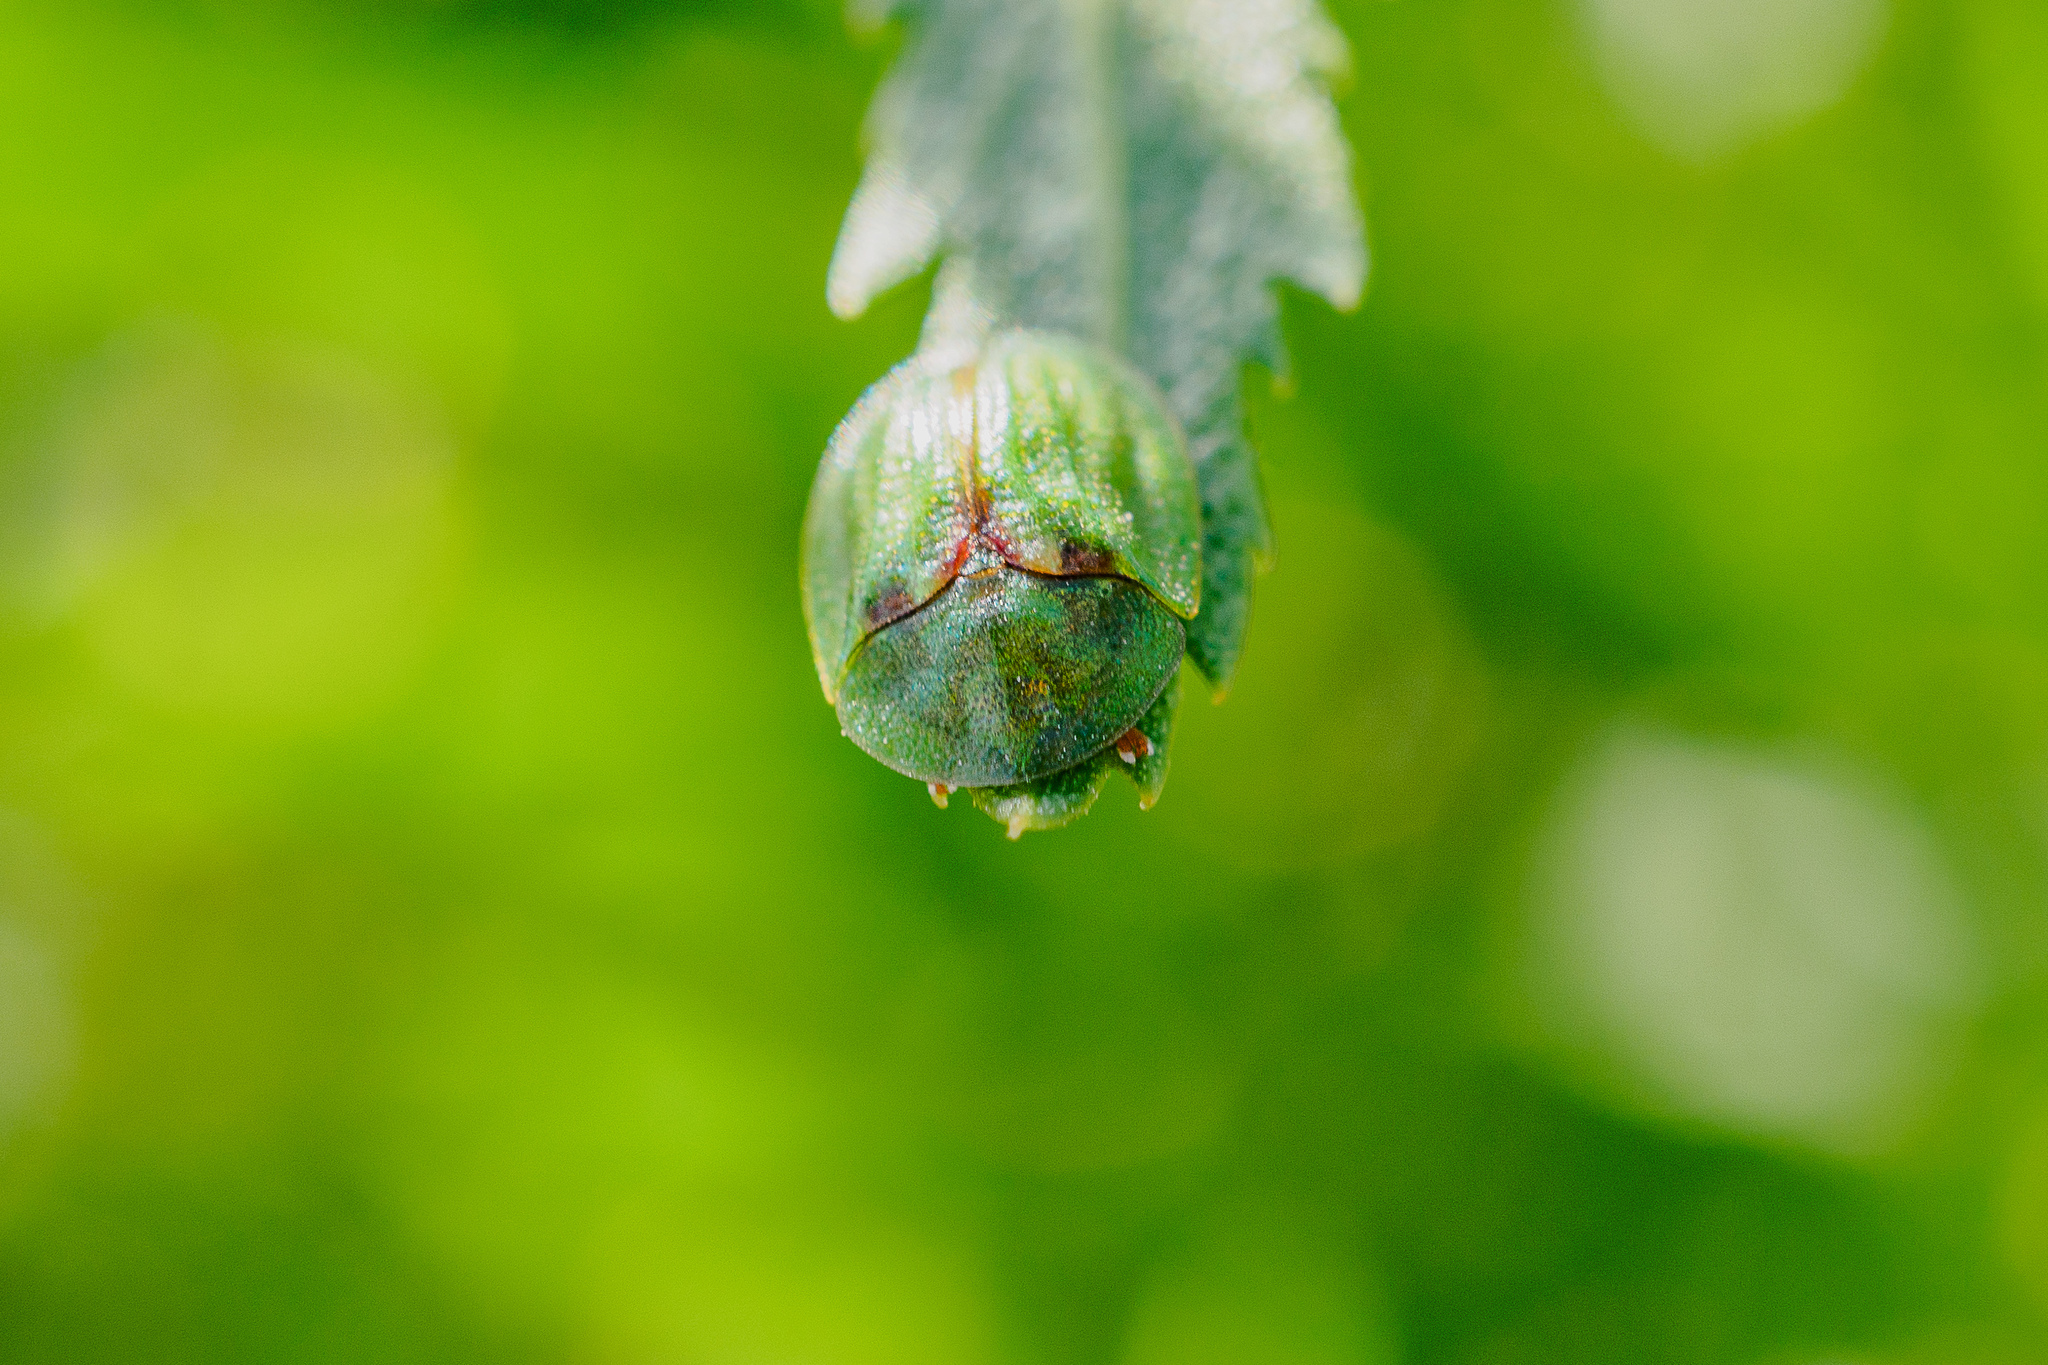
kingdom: Animalia
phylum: Arthropoda
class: Insecta
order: Coleoptera
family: Chrysomelidae
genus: Cassida
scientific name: Cassida stigmatica
